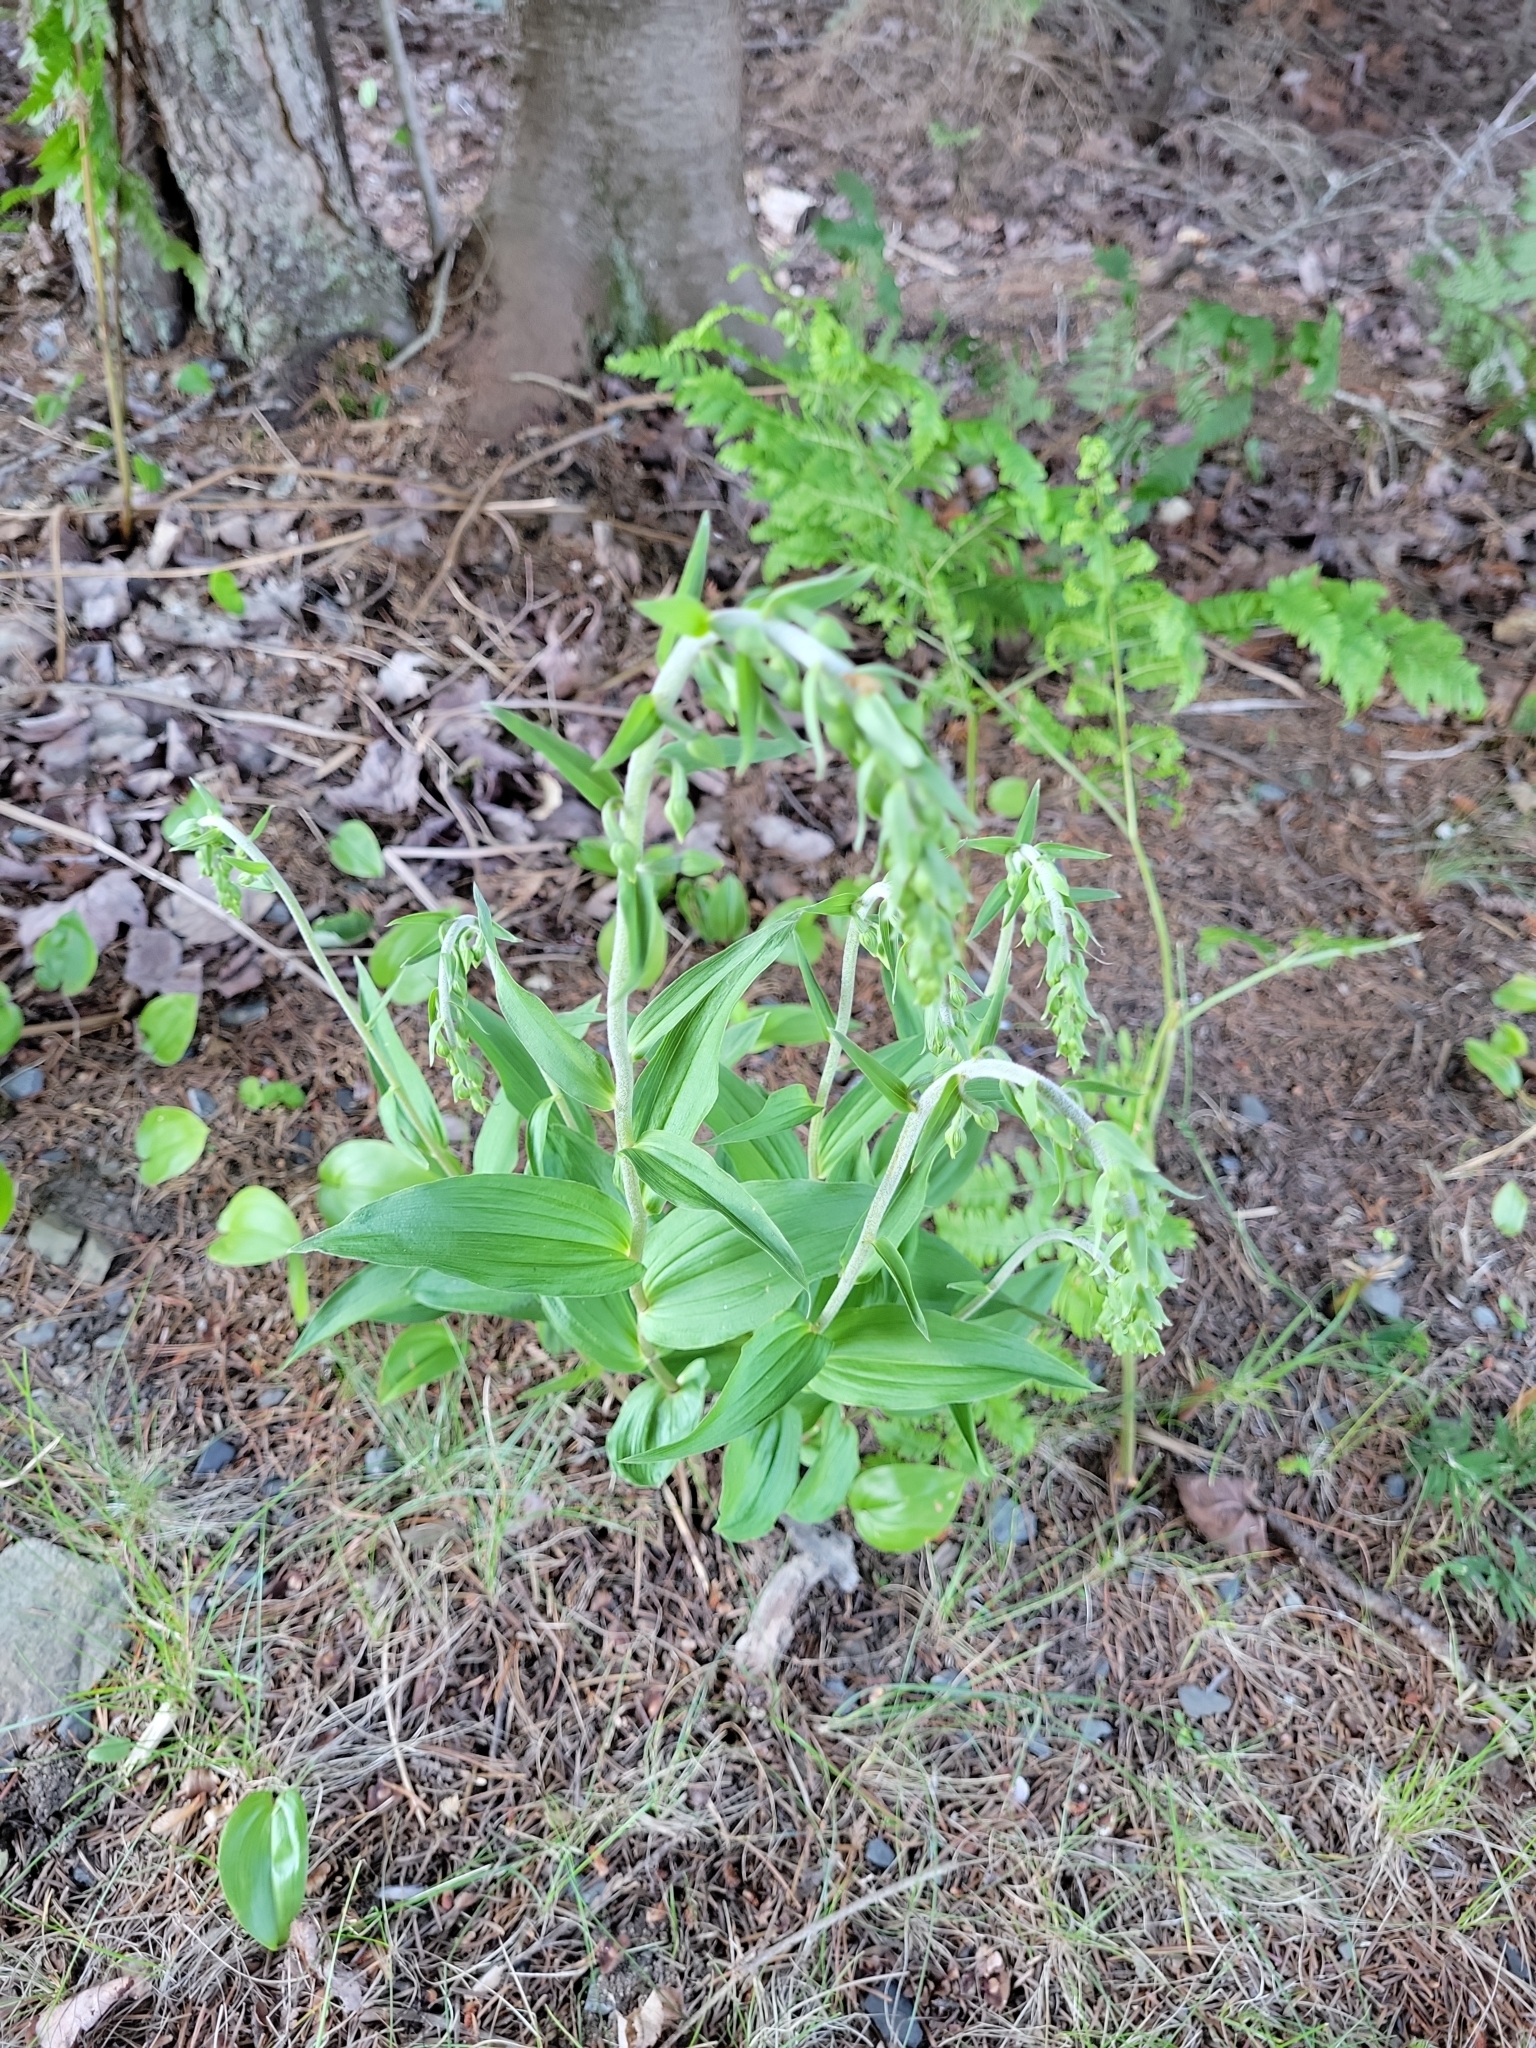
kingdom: Plantae
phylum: Tracheophyta
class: Liliopsida
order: Asparagales
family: Orchidaceae
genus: Epipactis
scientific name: Epipactis helleborine
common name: Broad-leaved helleborine
